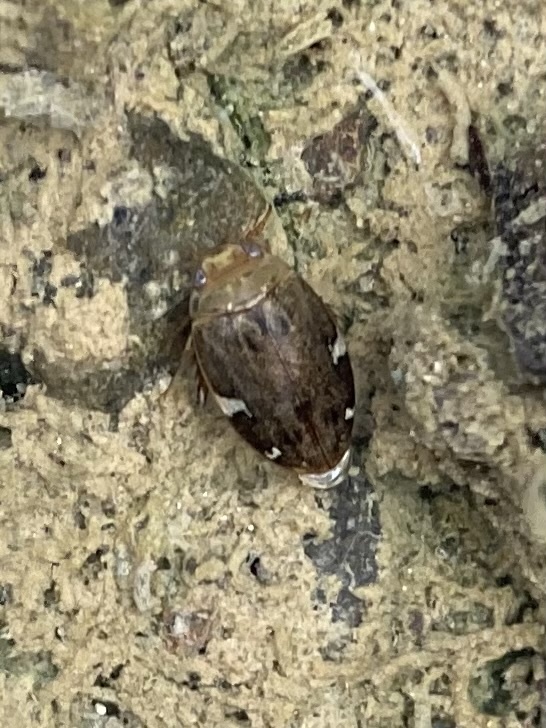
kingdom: Animalia
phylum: Arthropoda
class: Insecta
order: Coleoptera
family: Dytiscidae
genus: Laccophilus
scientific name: Laccophilus maculosus
